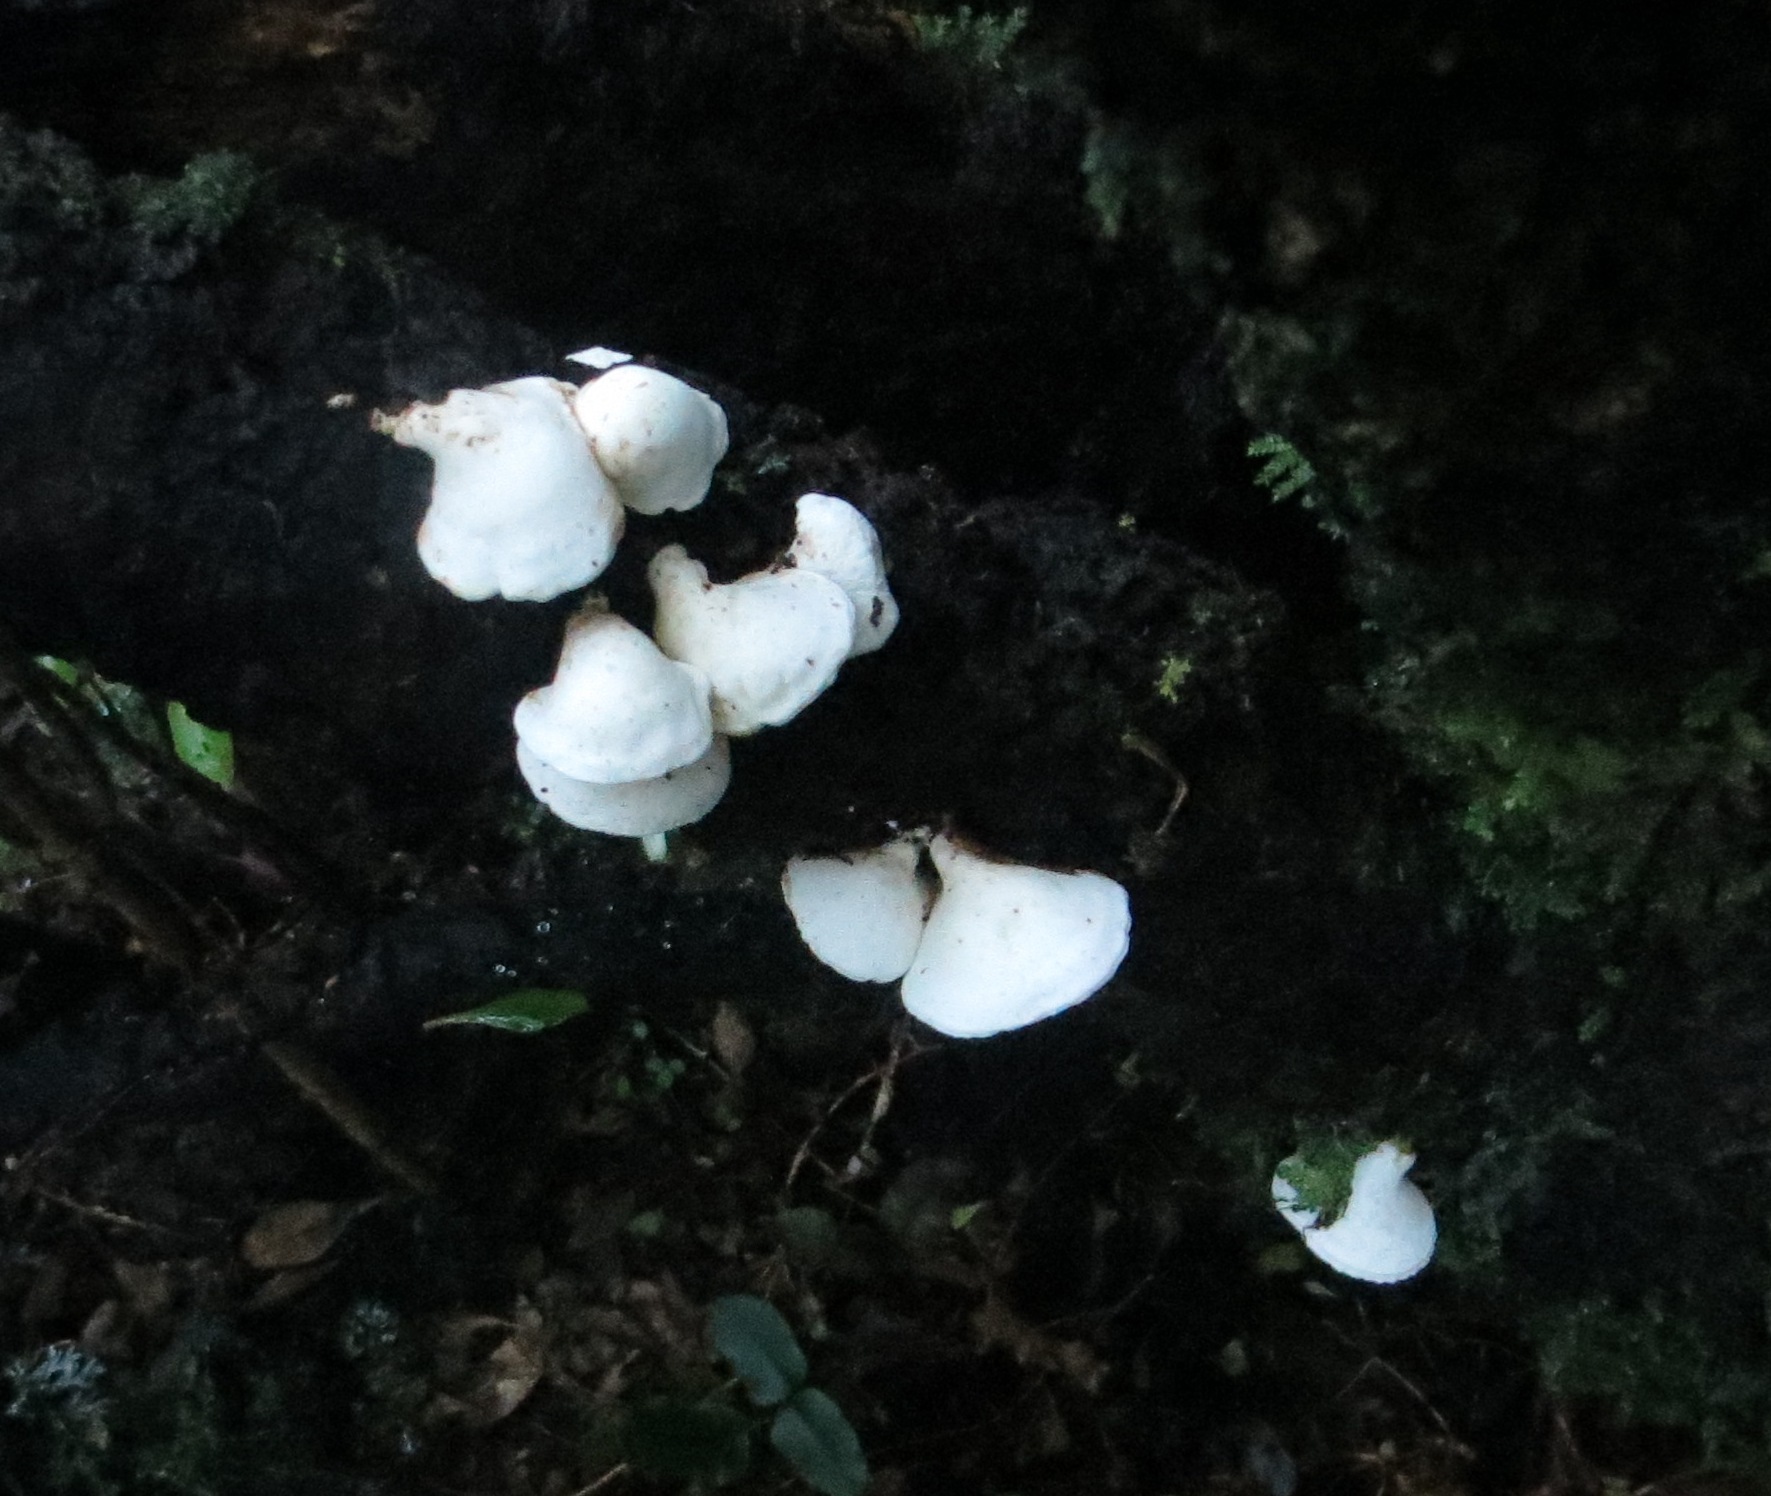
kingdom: Fungi
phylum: Basidiomycota
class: Agaricomycetes
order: Polyporales
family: Irpicaceae
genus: Gloeoporus
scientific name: Gloeoporus phlebophorus
